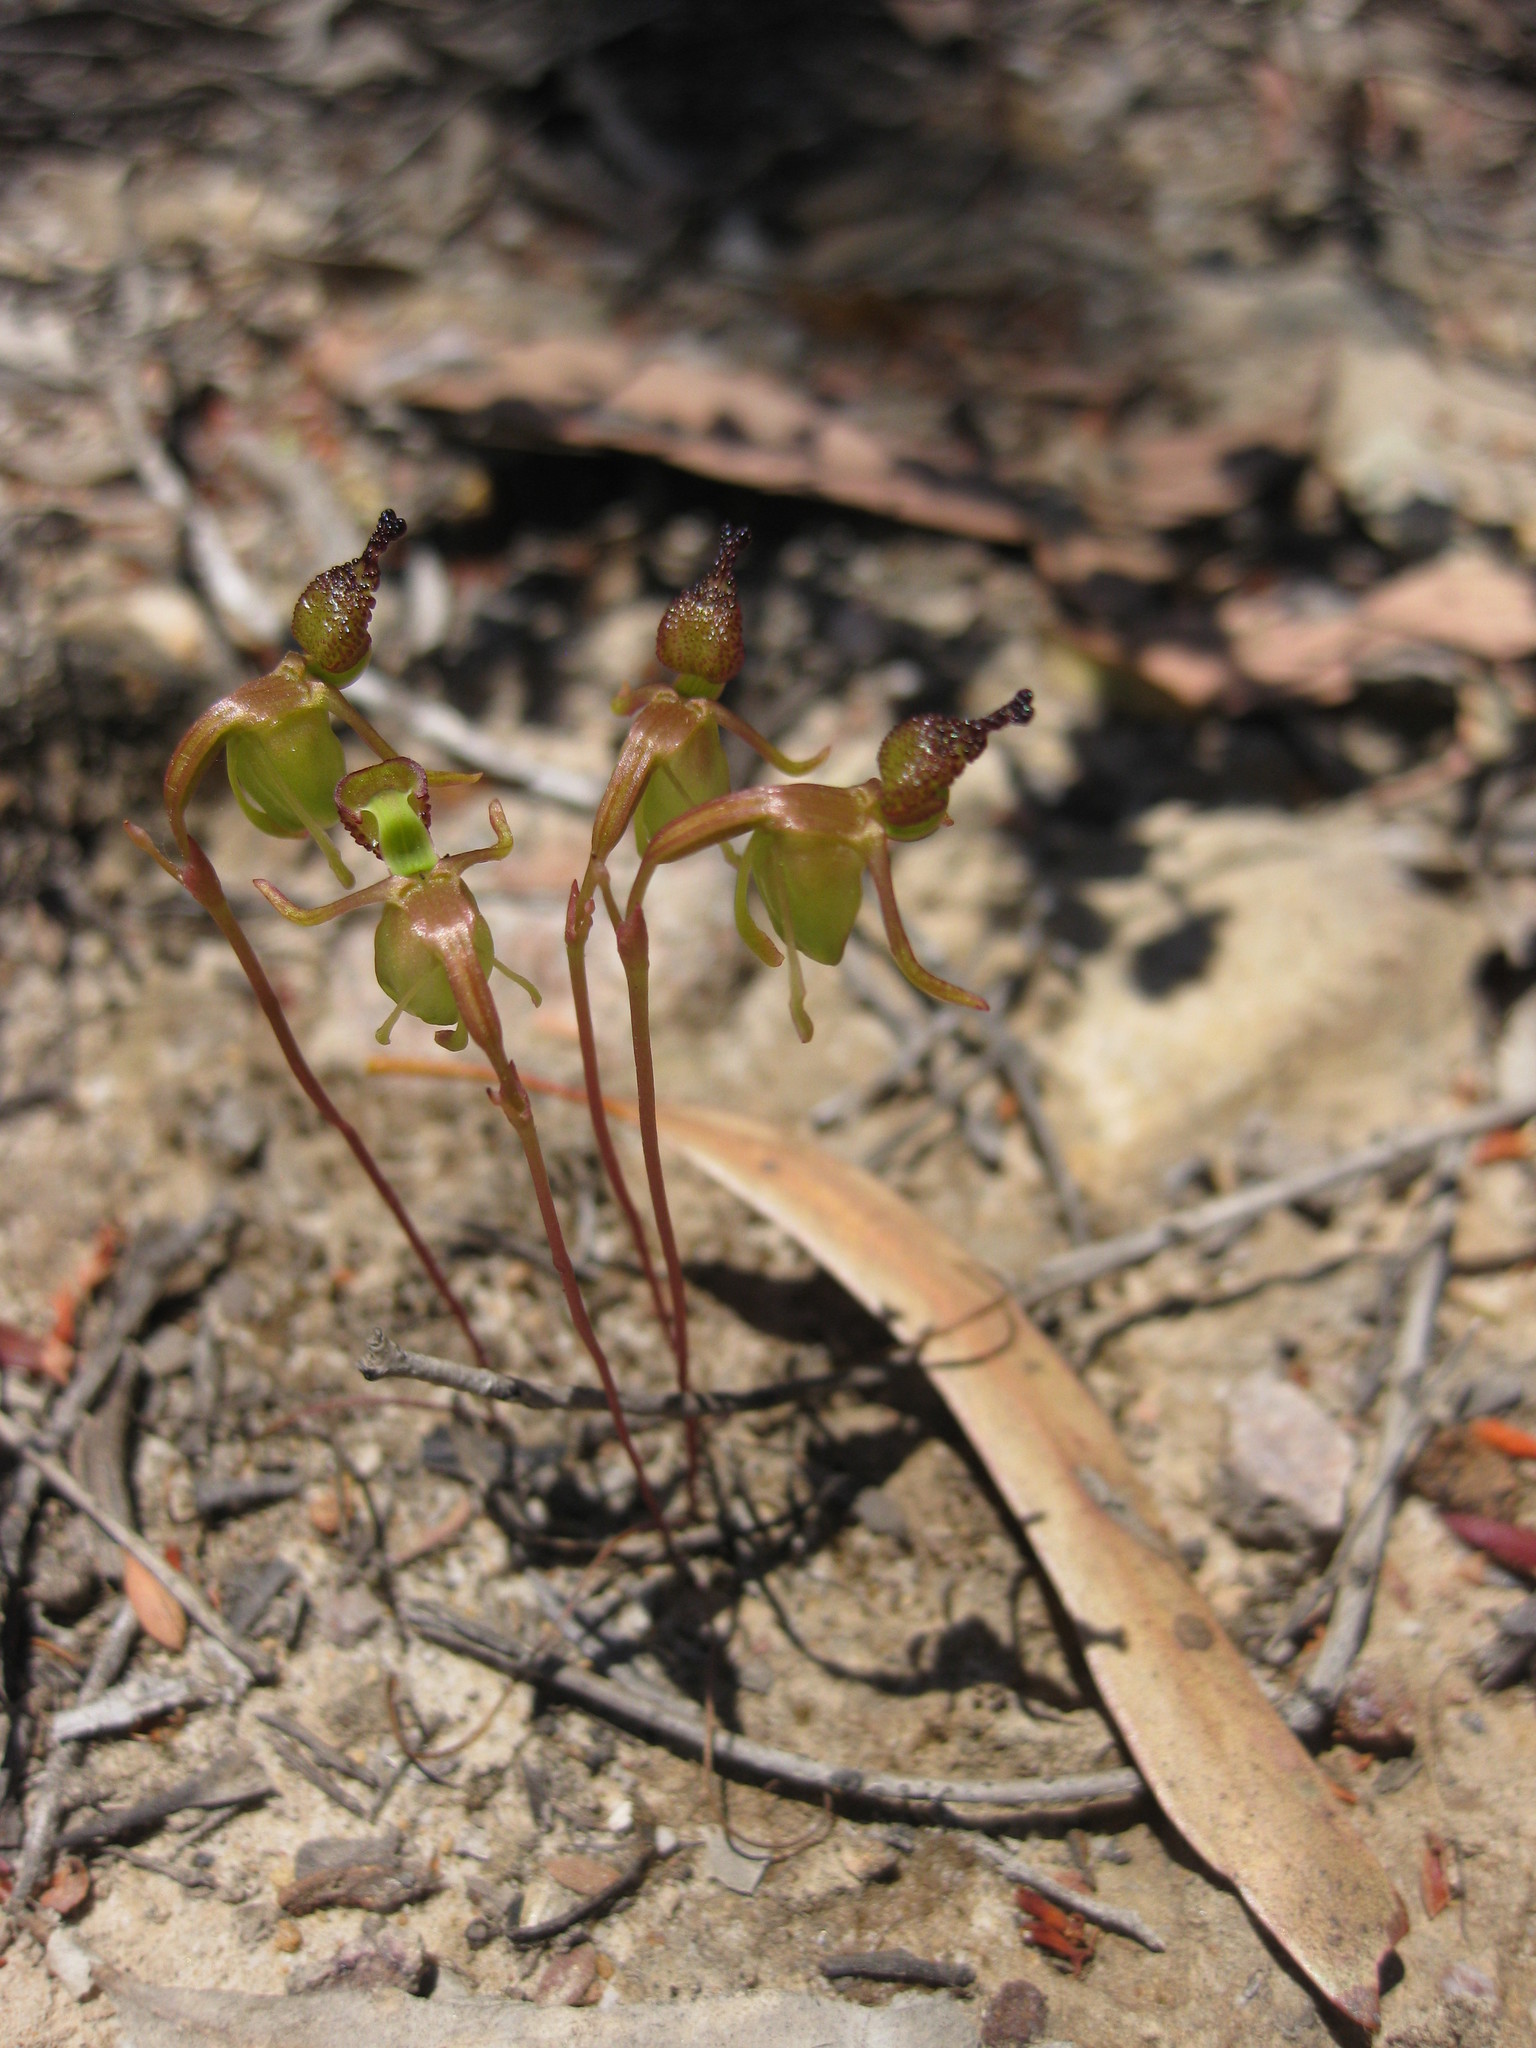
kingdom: Plantae
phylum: Tracheophyta
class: Liliopsida
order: Asparagales
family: Orchidaceae
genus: Caleana
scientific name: Caleana minor
